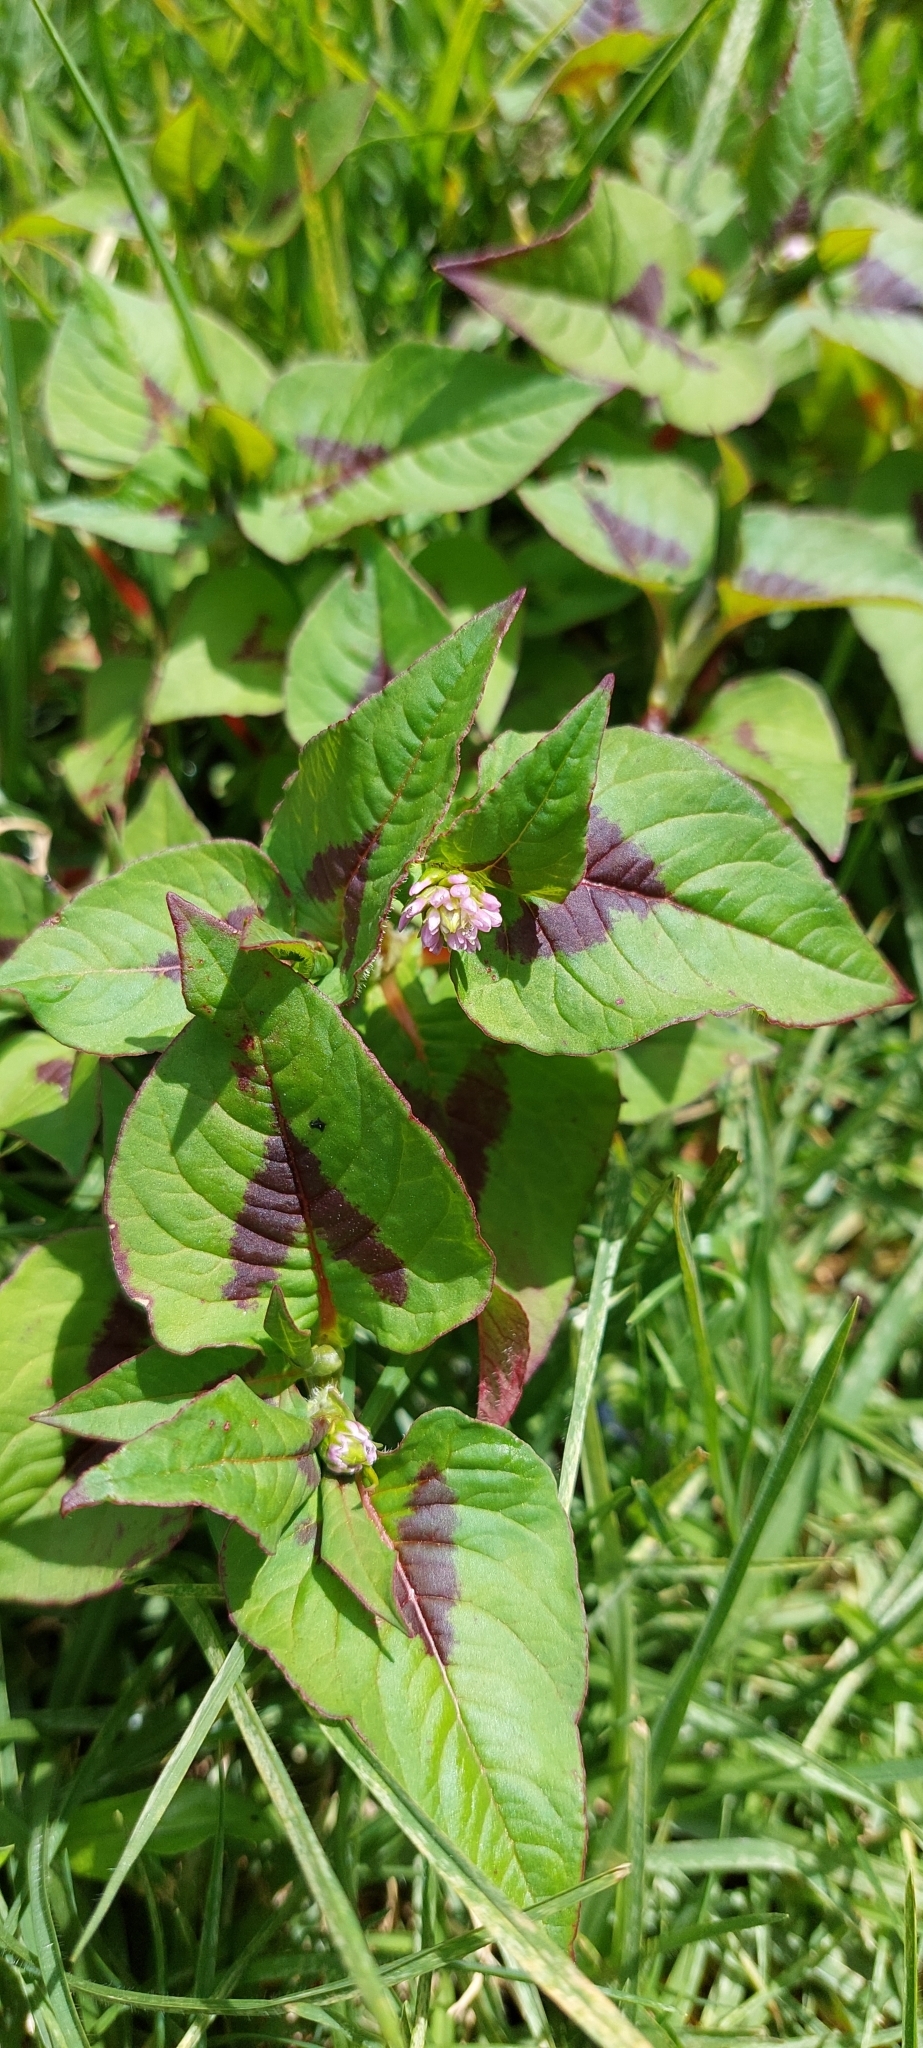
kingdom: Plantae
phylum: Tracheophyta
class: Magnoliopsida
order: Caryophyllales
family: Polygonaceae
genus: Persicaria
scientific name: Persicaria nepalensis
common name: Nepal persicaria
